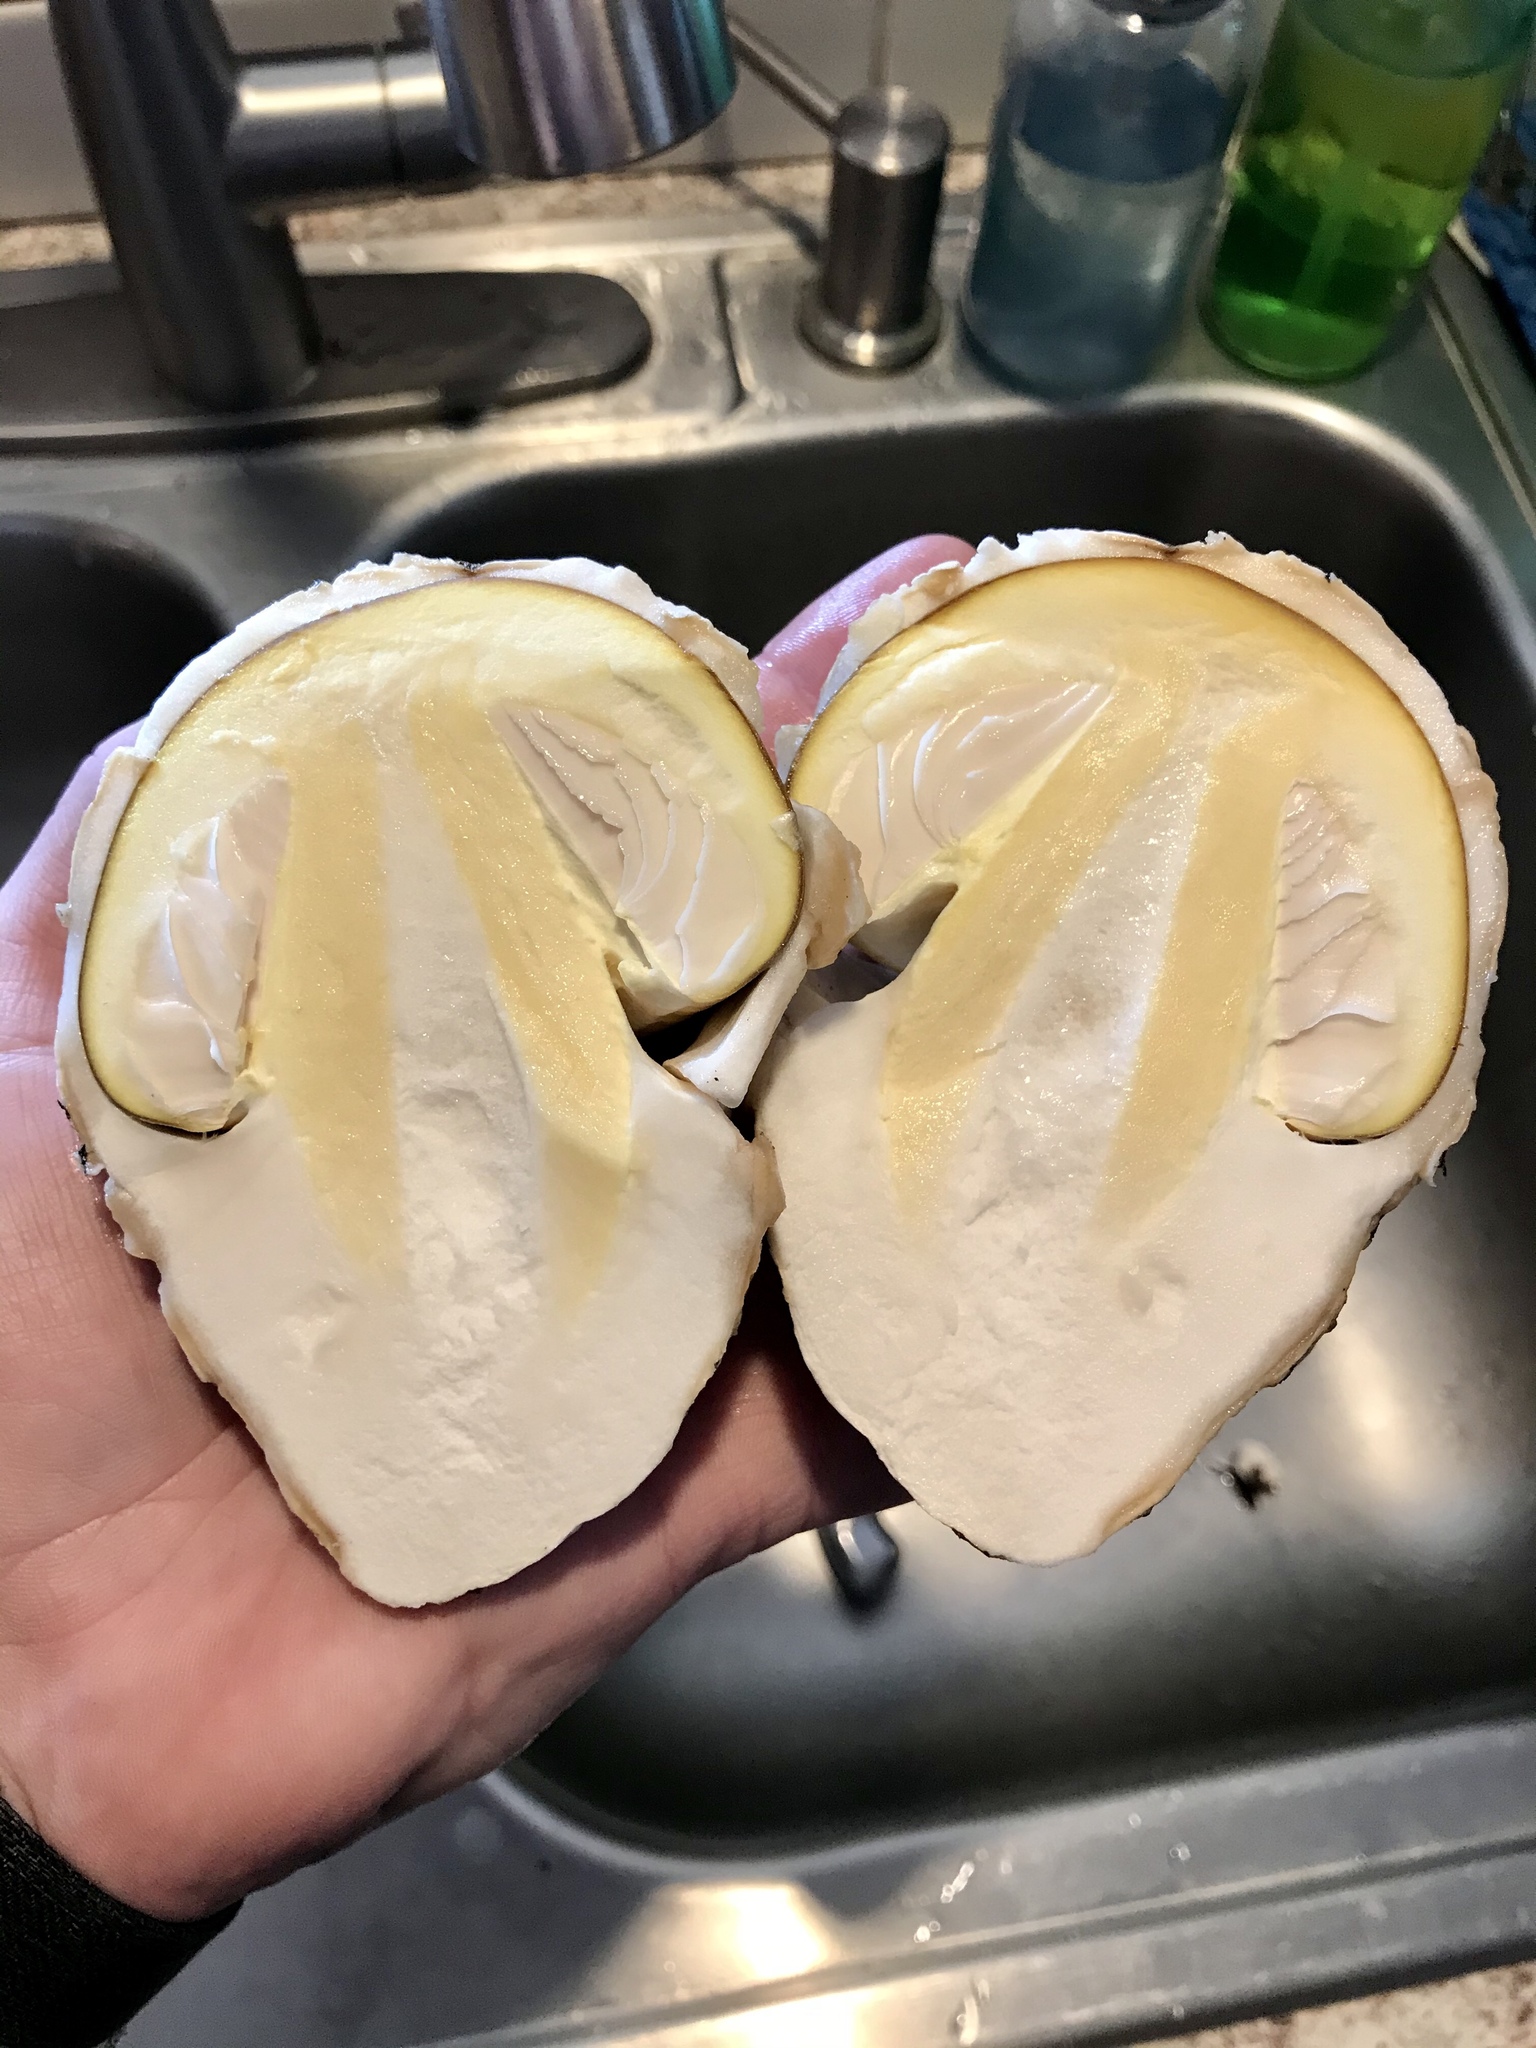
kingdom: Fungi
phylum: Basidiomycota
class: Agaricomycetes
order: Agaricales
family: Amanitaceae
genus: Amanita
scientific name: Amanita calyptroderma
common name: Coccora
